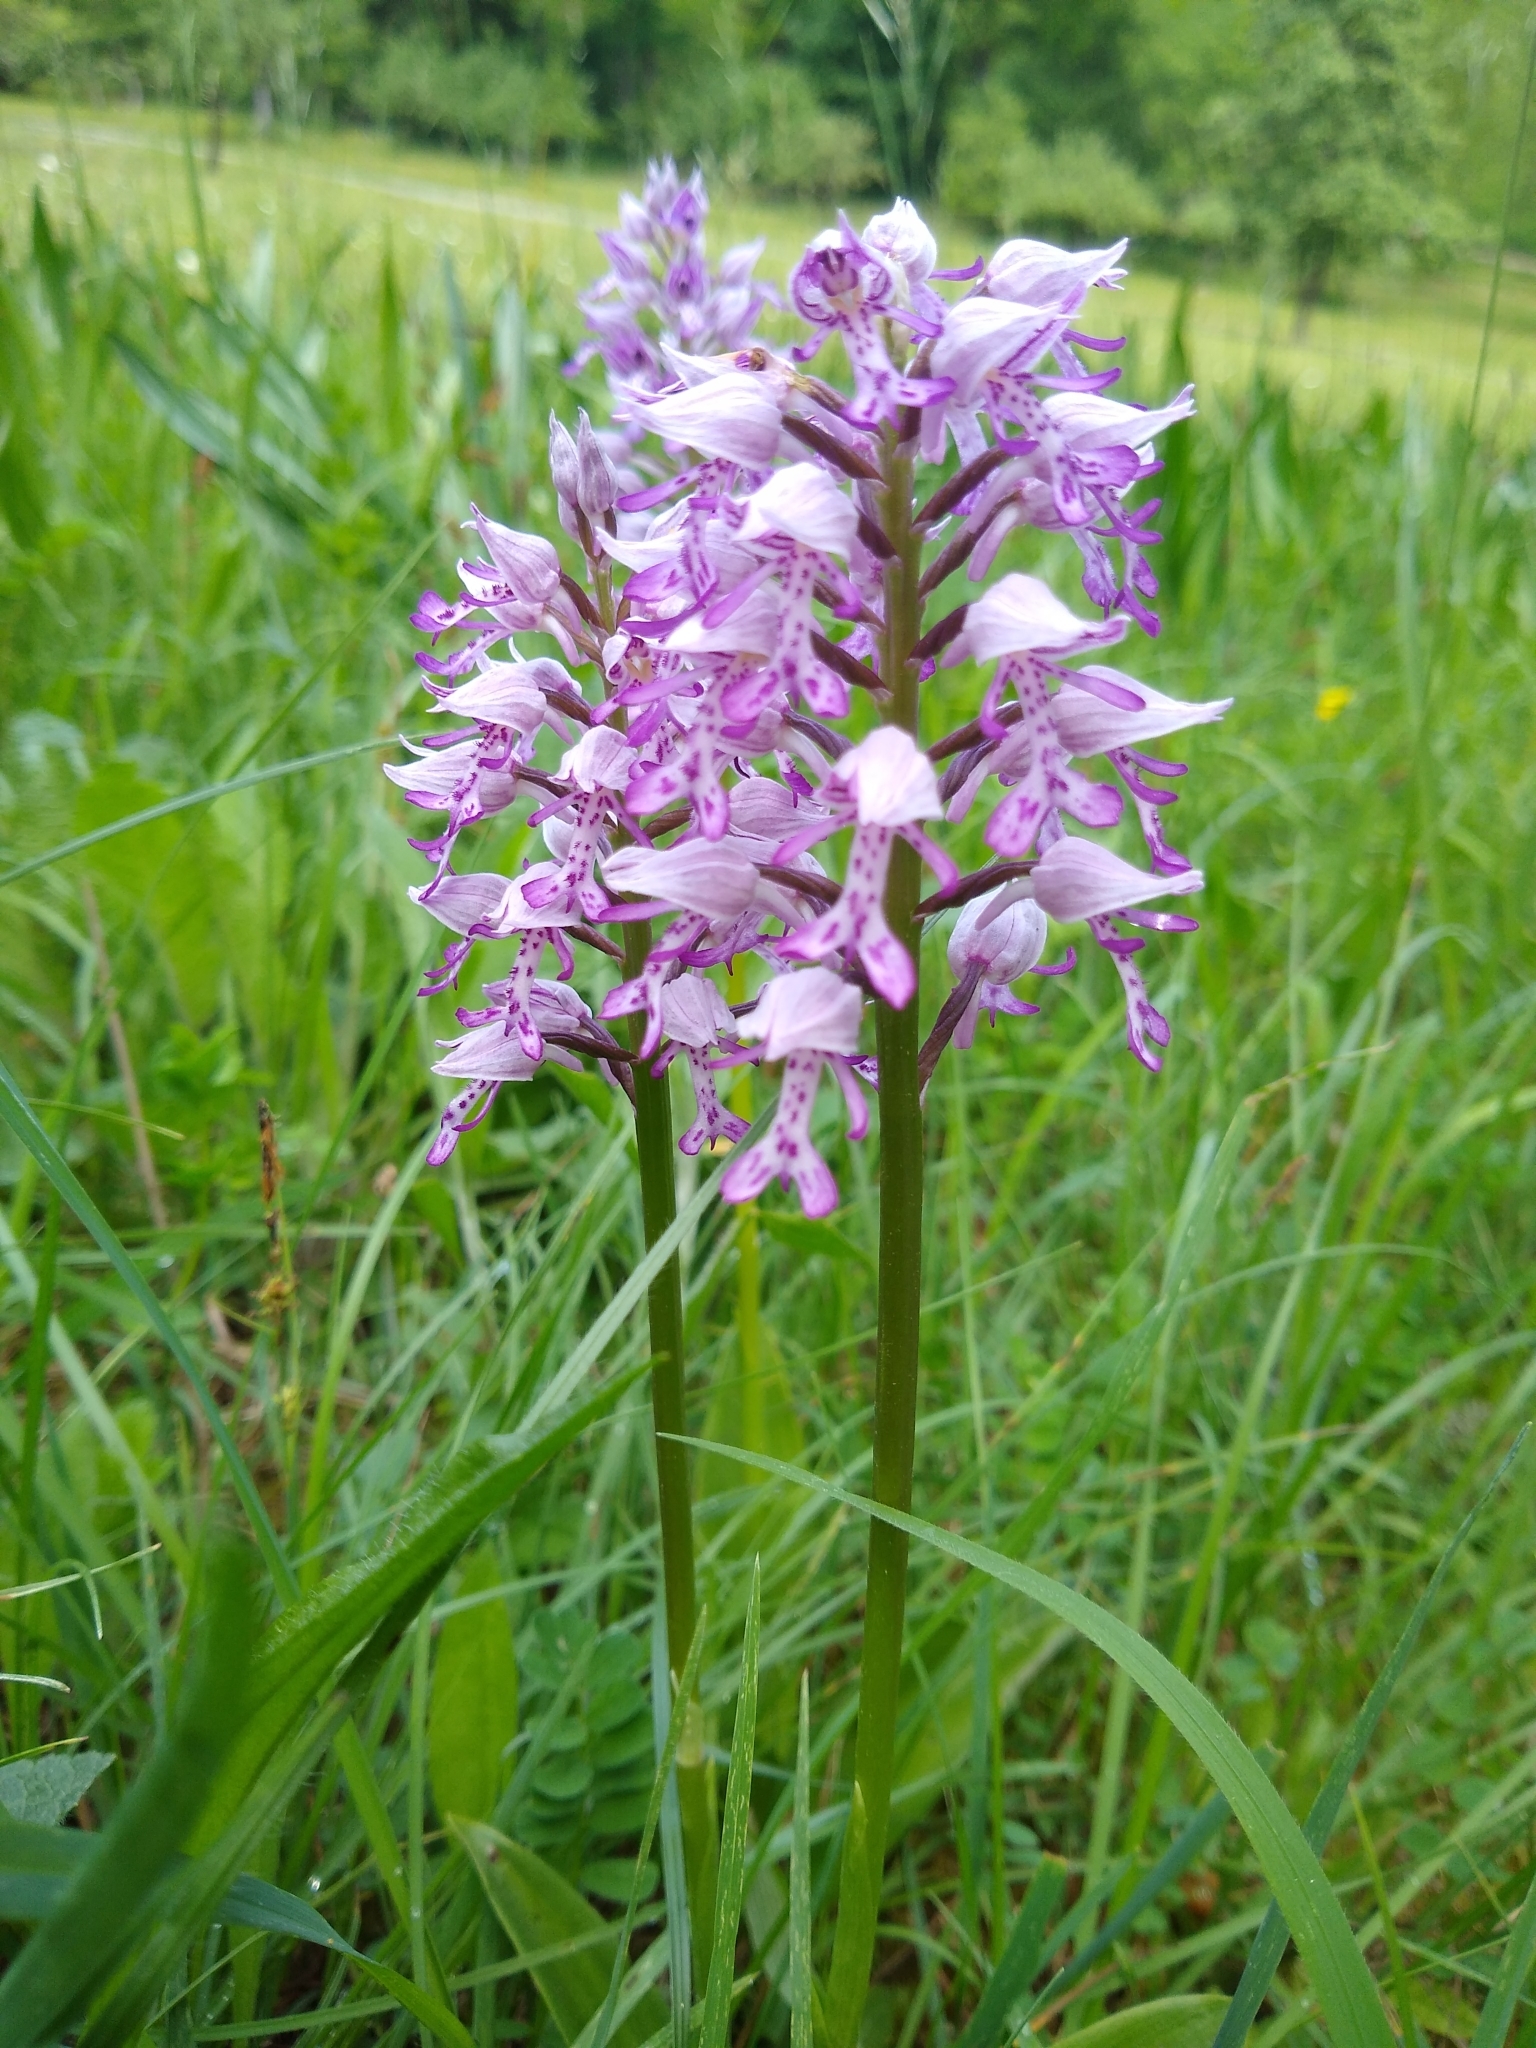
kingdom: Plantae
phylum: Tracheophyta
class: Liliopsida
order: Asparagales
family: Orchidaceae
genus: Orchis
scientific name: Orchis militaris
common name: Military orchid
